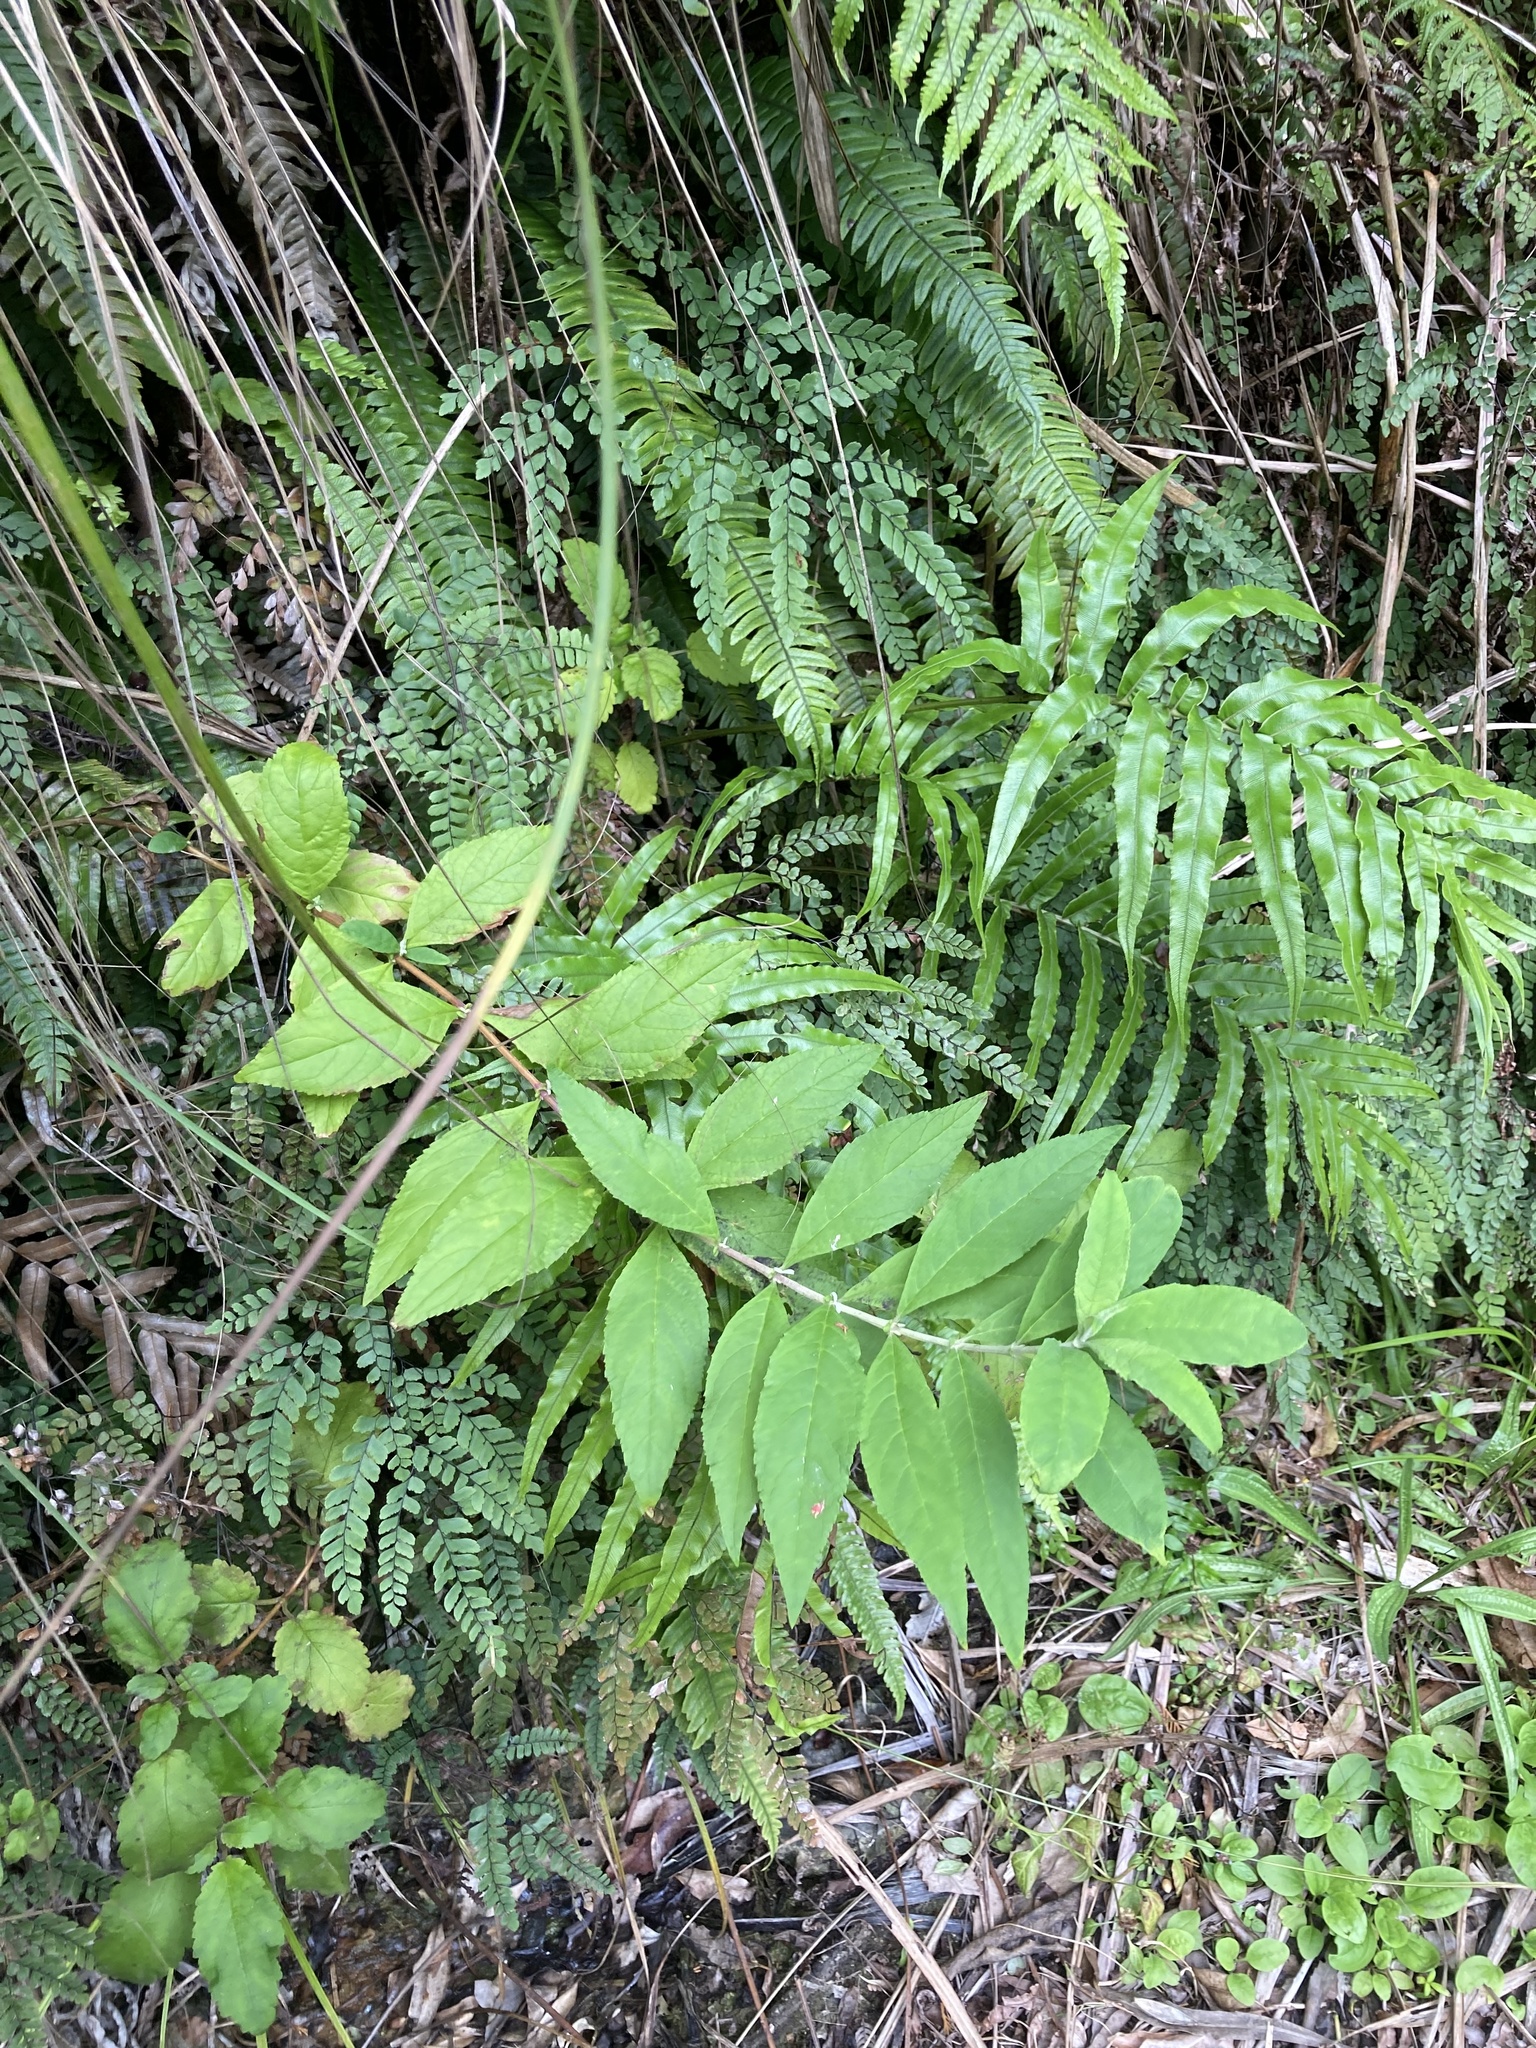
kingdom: Plantae
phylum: Tracheophyta
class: Magnoliopsida
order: Lamiales
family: Scrophulariaceae
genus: Buddleja
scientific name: Buddleja davidii
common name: Butterfly-bush
